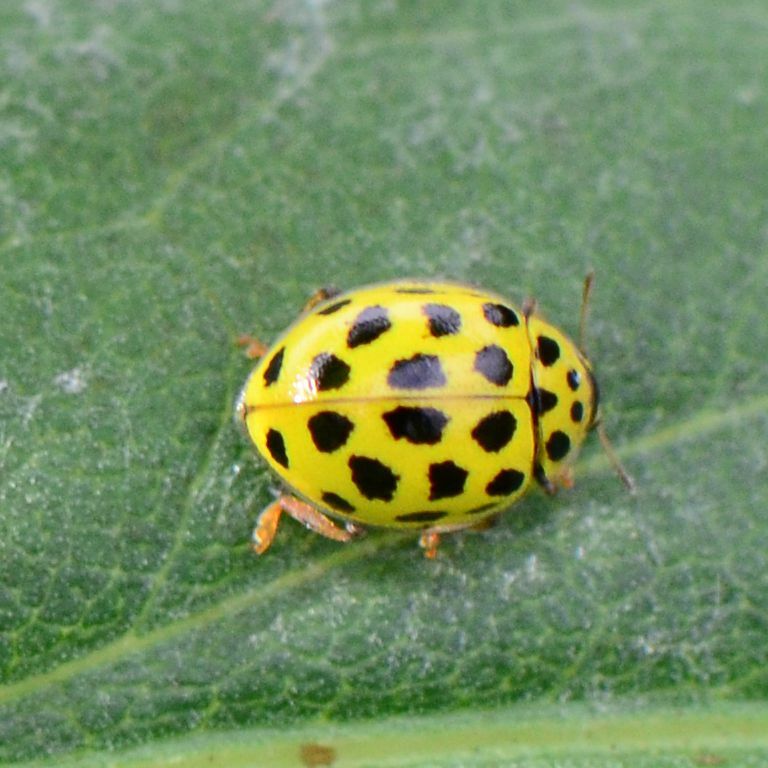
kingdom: Animalia
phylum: Arthropoda
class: Insecta
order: Coleoptera
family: Coccinellidae
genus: Psyllobora
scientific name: Psyllobora vigintiduopunctata
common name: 22-spot ladybird
